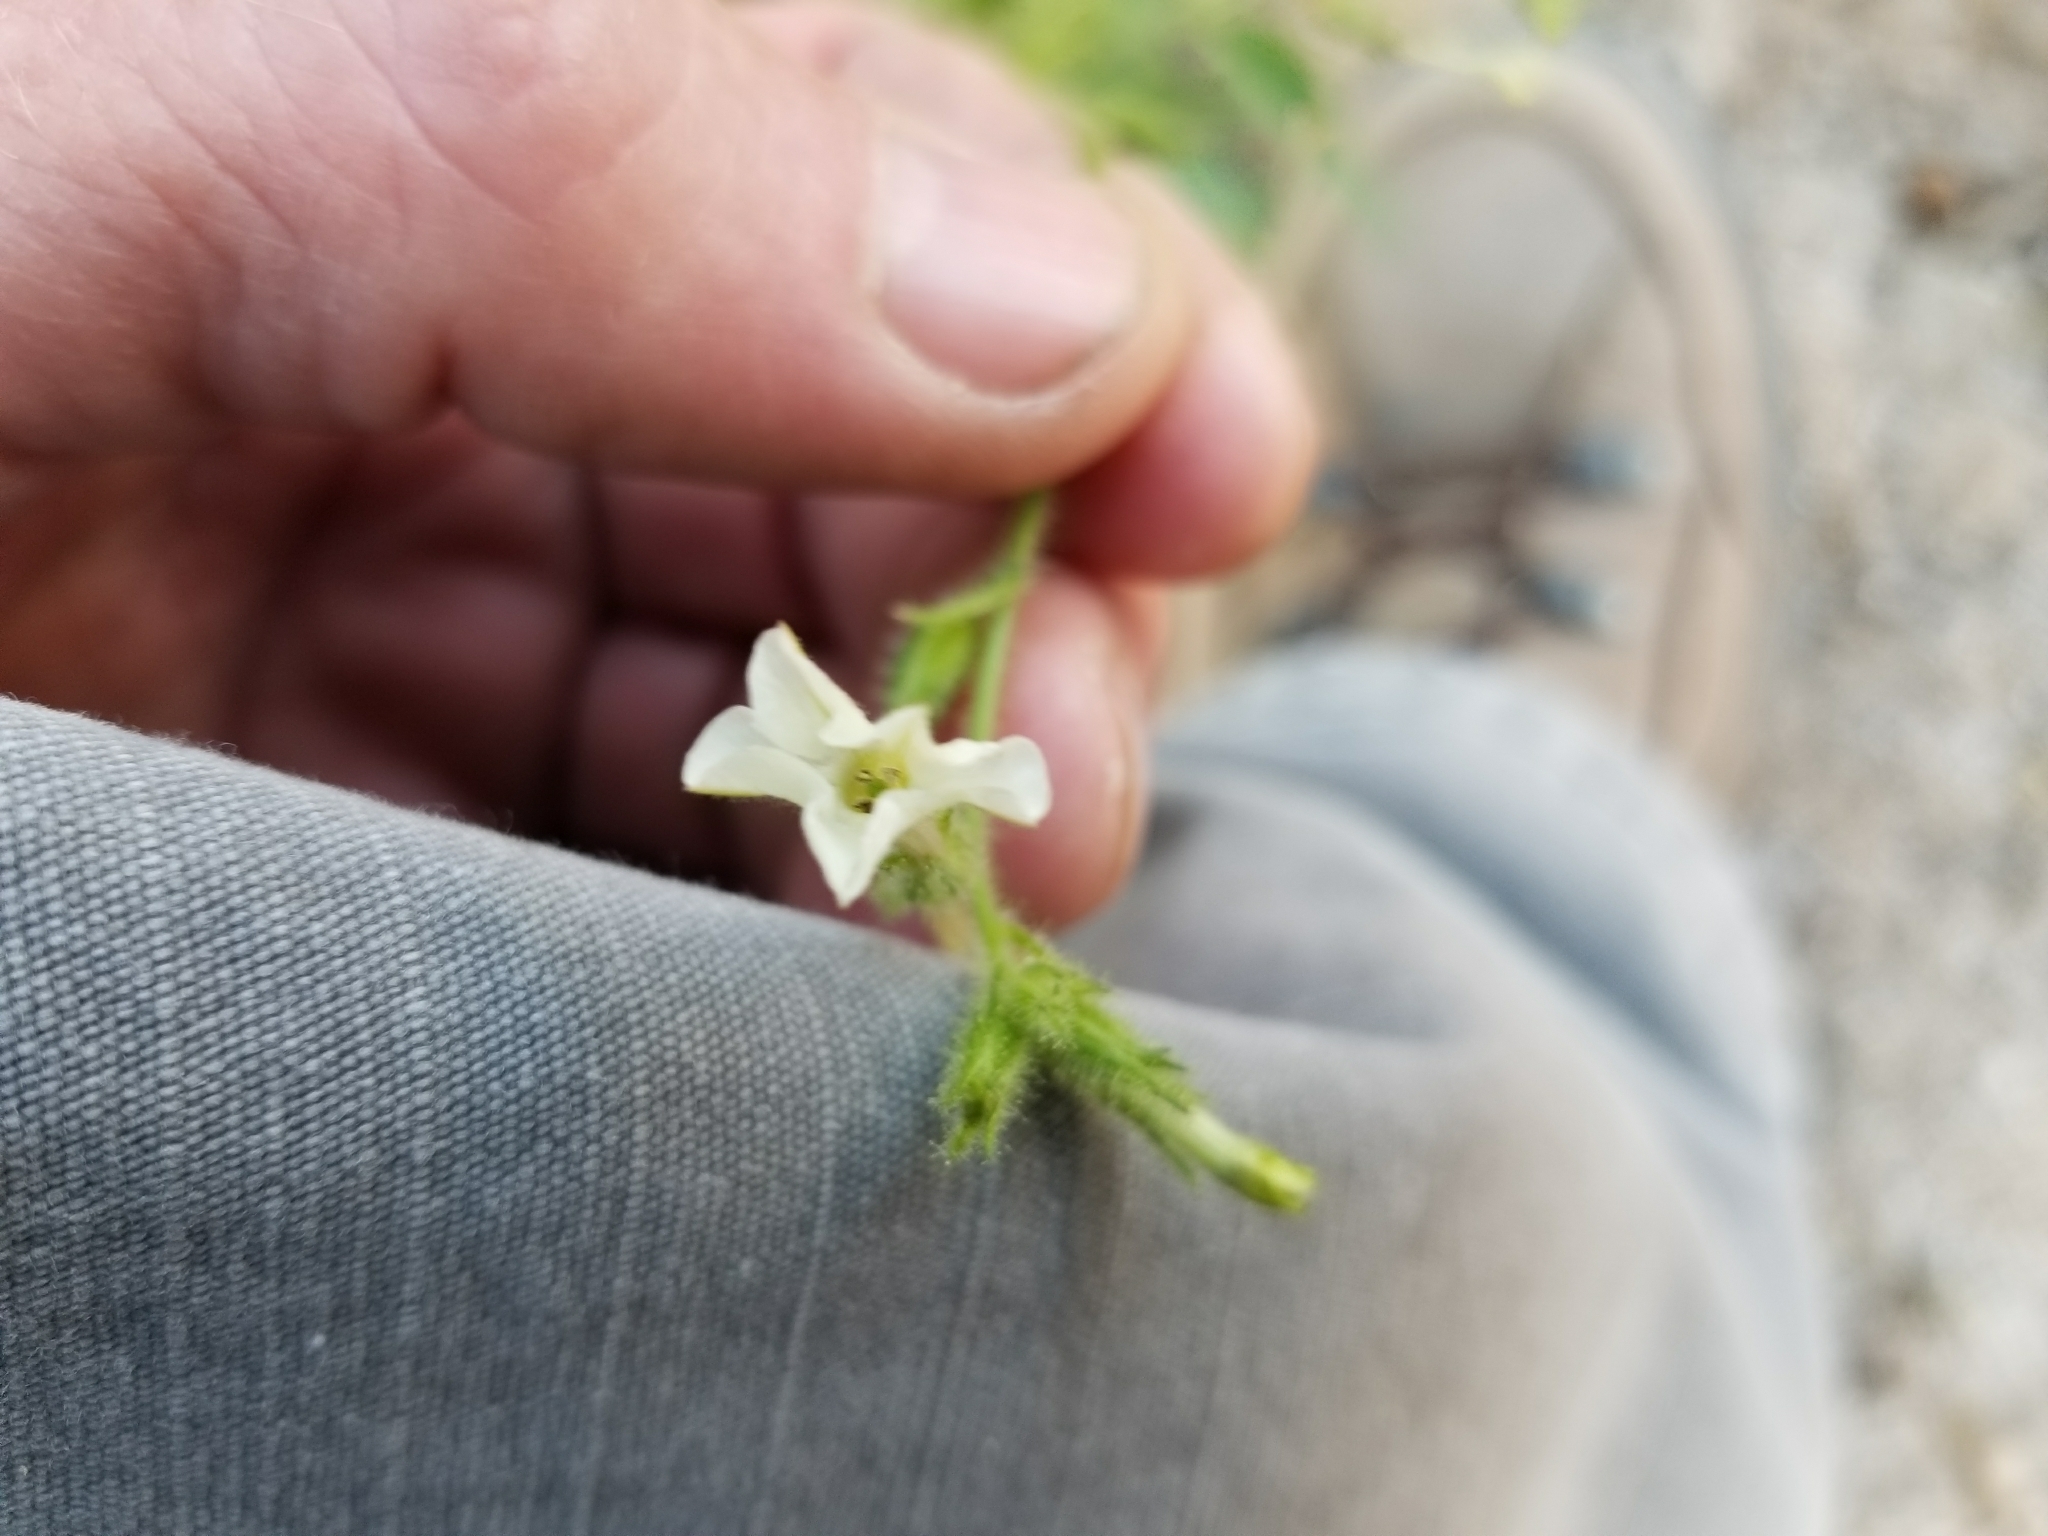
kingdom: Plantae
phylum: Tracheophyta
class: Magnoliopsida
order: Solanales
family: Solanaceae
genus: Nicotiana
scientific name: Nicotiana obtusifolia
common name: Desert tobacco
